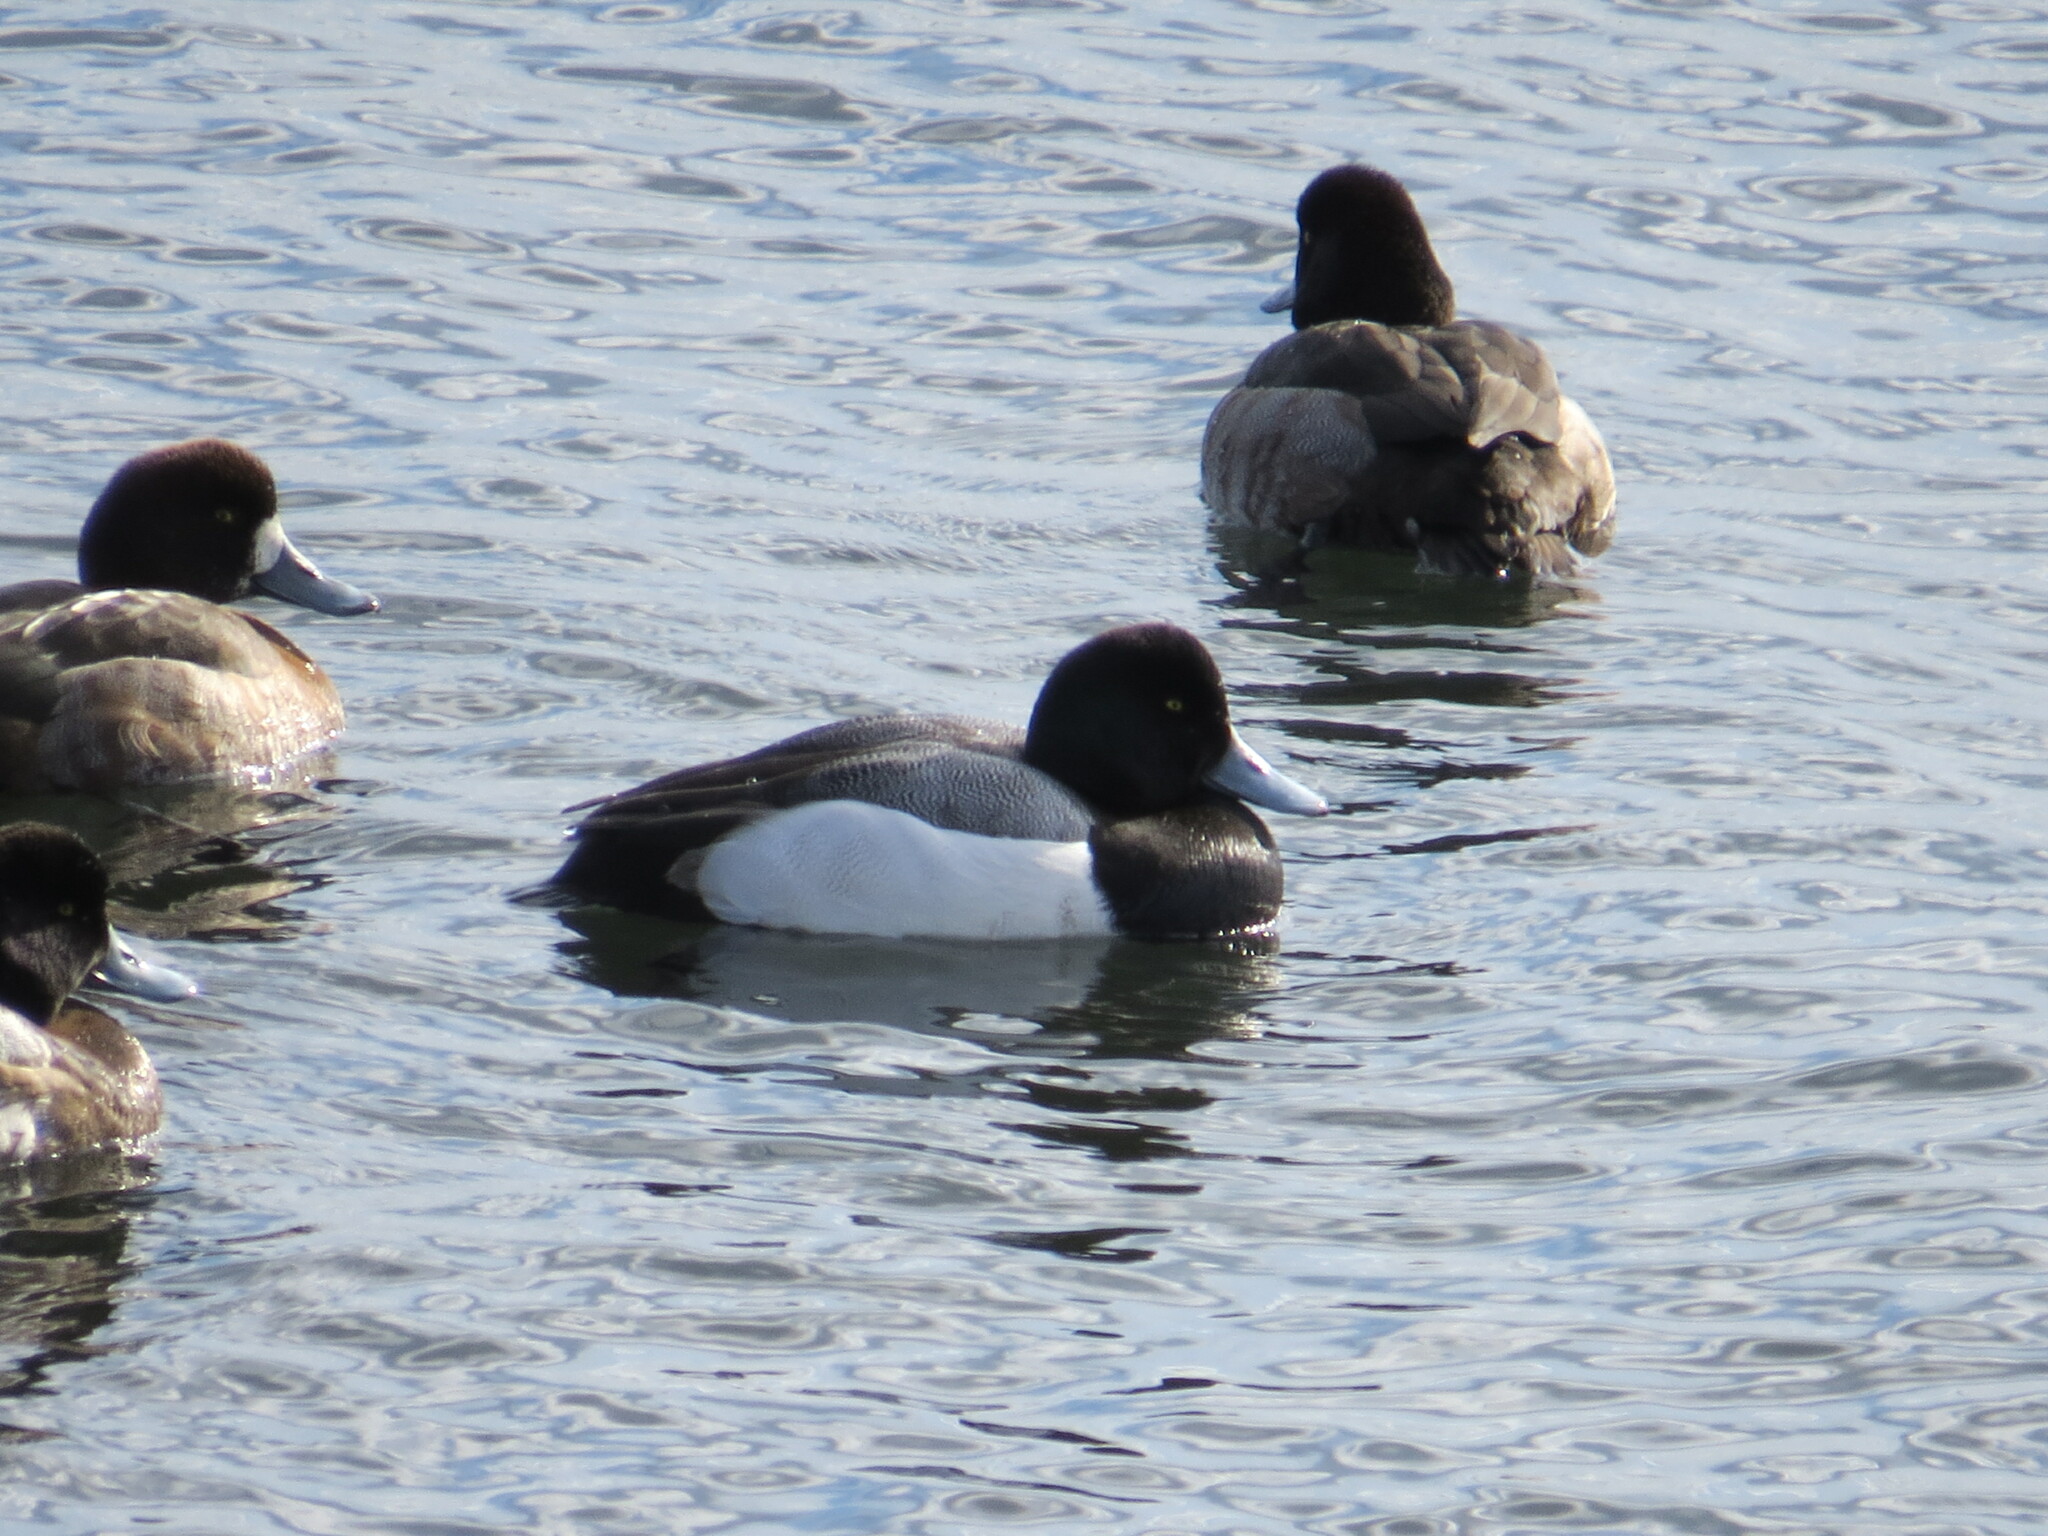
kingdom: Animalia
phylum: Chordata
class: Aves
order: Anseriformes
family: Anatidae
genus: Aythya
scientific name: Aythya marila
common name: Greater scaup
